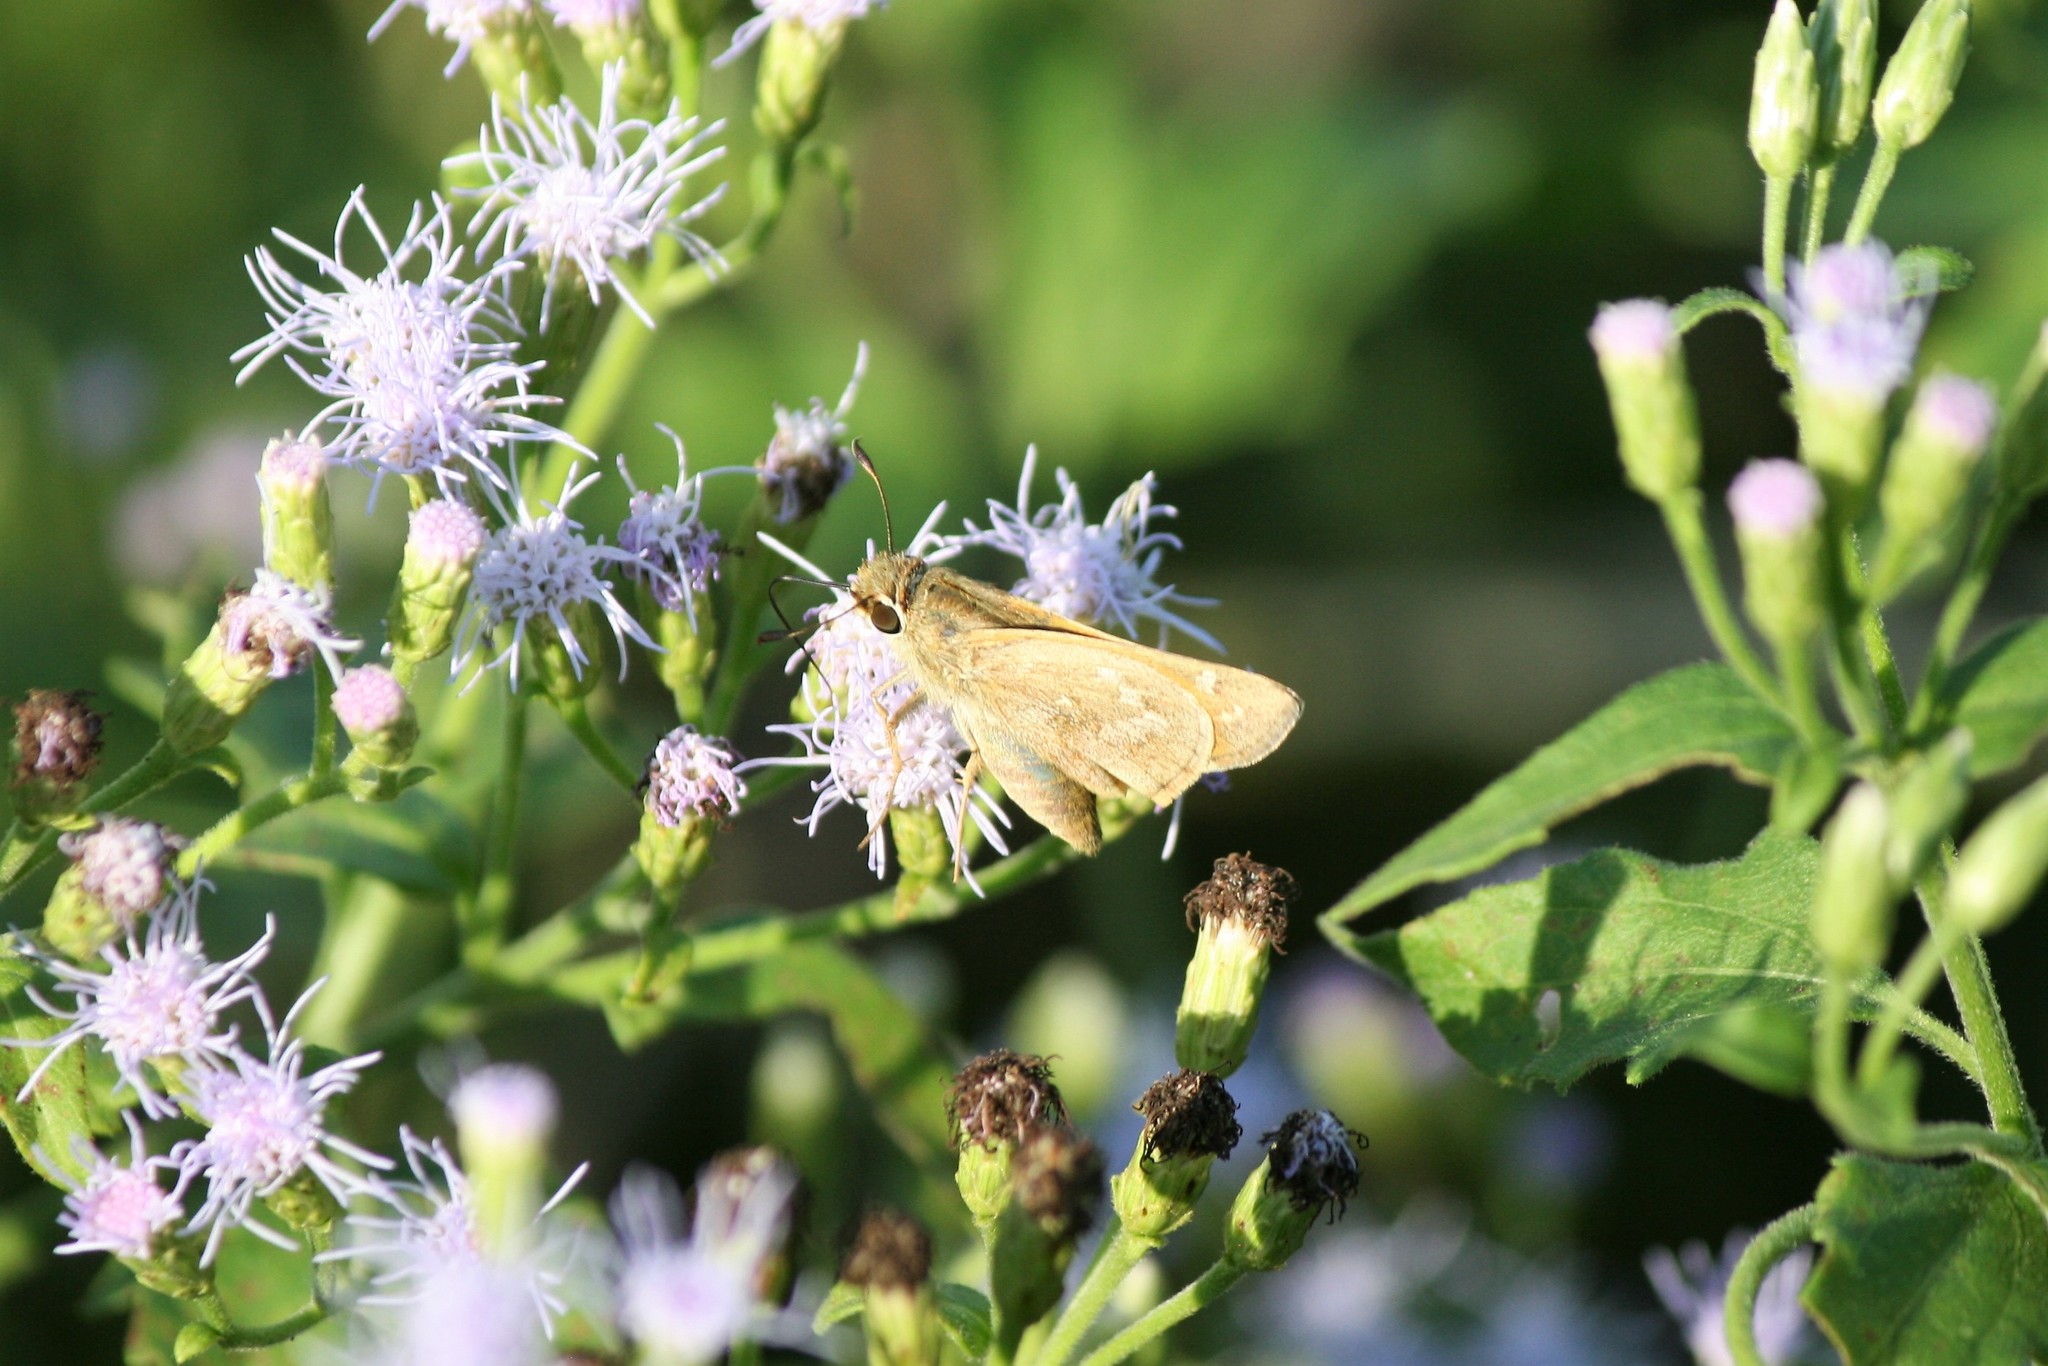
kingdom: Animalia
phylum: Arthropoda
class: Insecta
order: Lepidoptera
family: Hesperiidae
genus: Atalopedes
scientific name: Atalopedes
